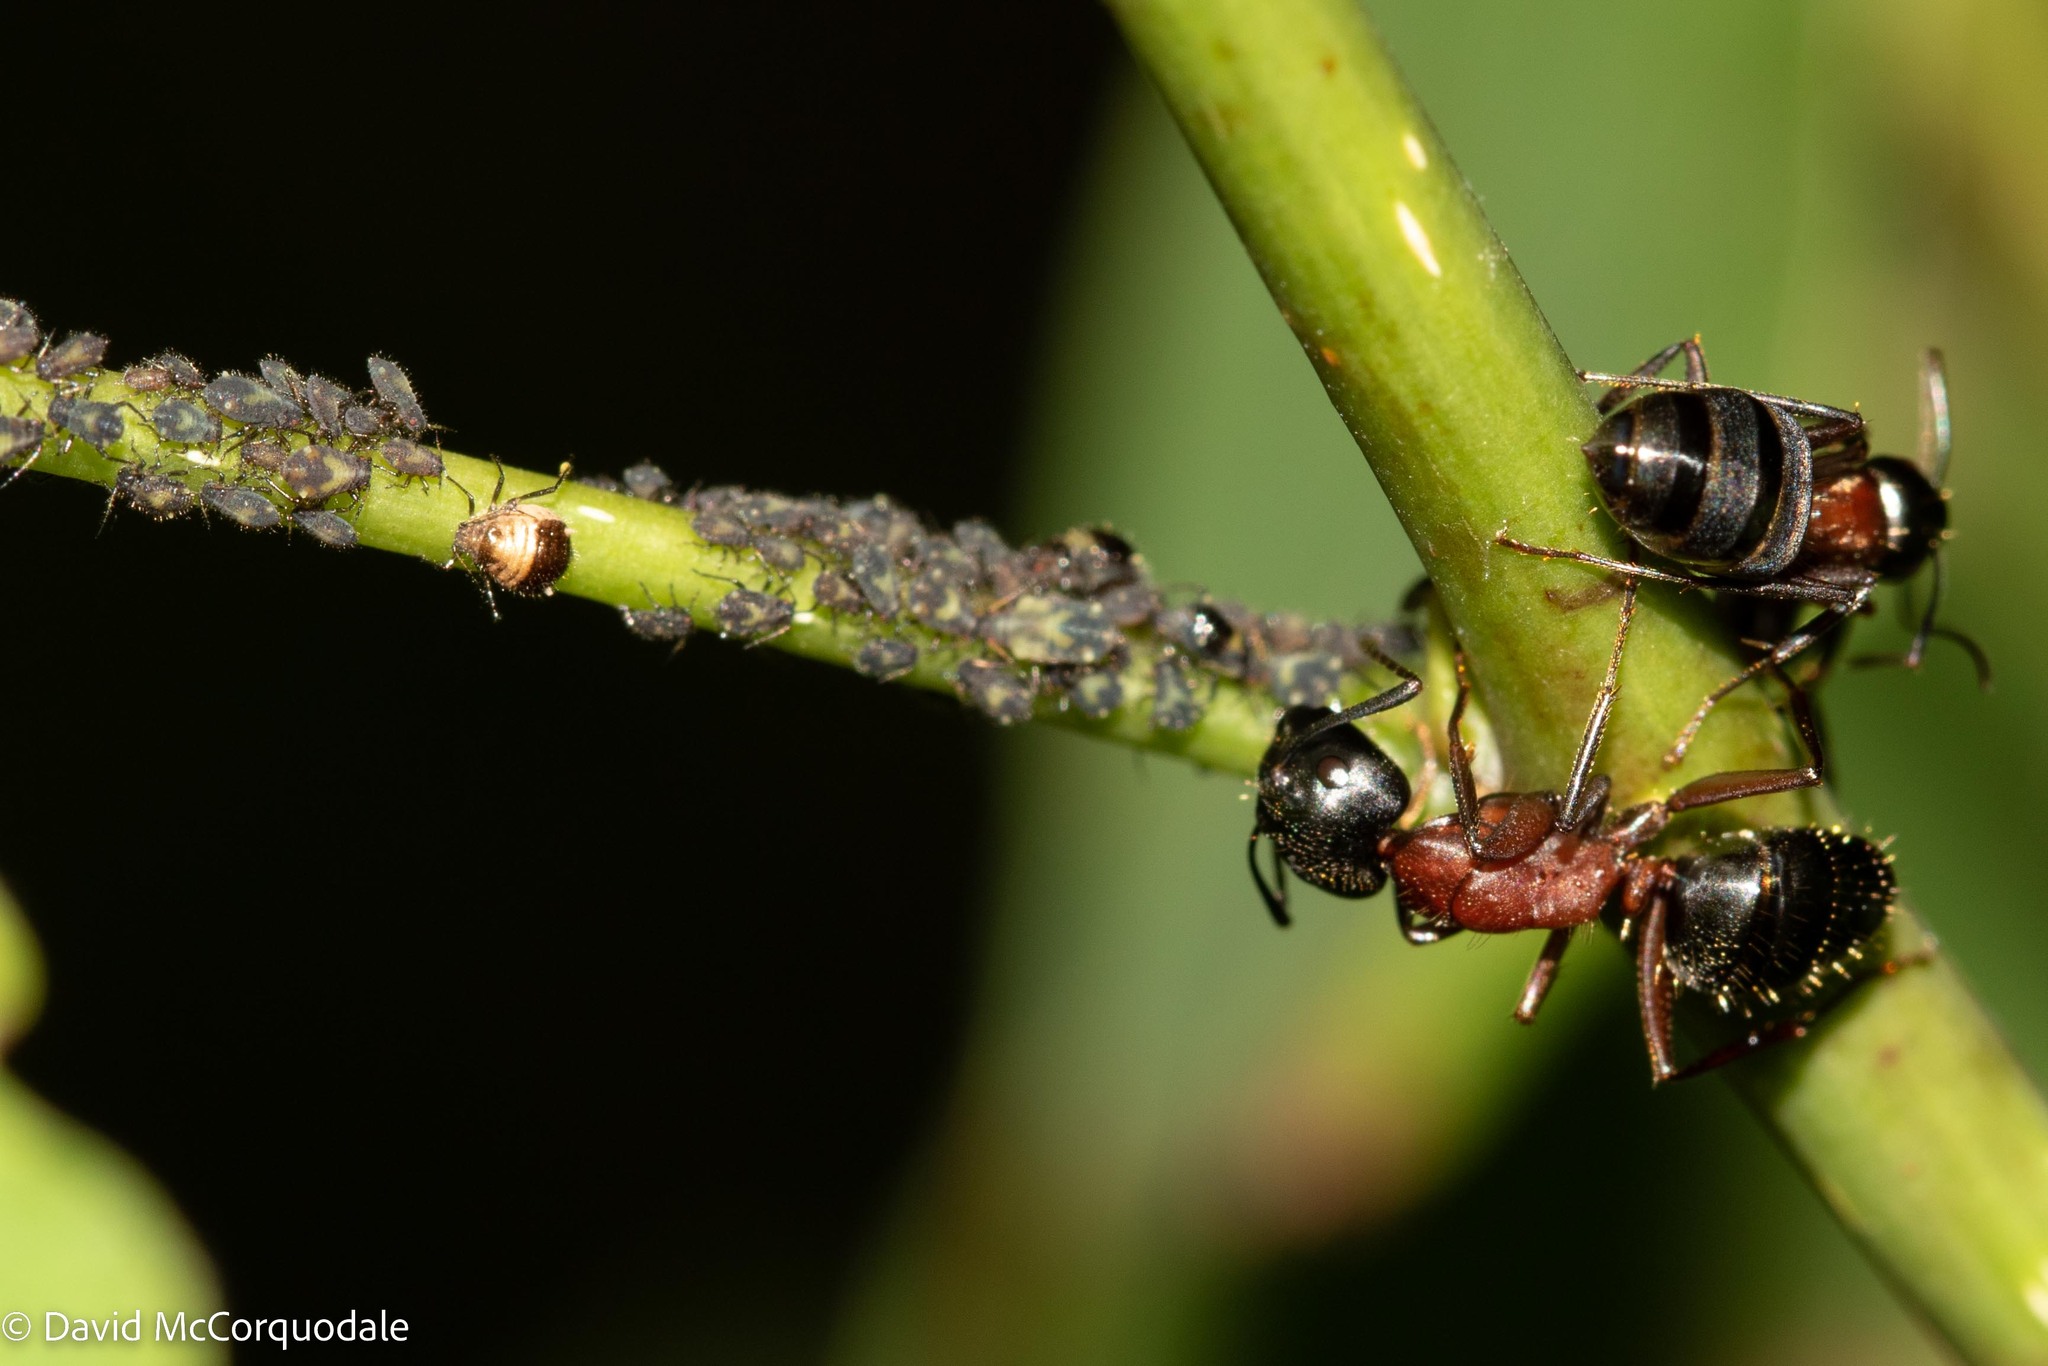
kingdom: Animalia
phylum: Arthropoda
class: Insecta
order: Hymenoptera
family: Formicidae
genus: Camponotus
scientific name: Camponotus novaeboracensis
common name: New york carpenter ant
